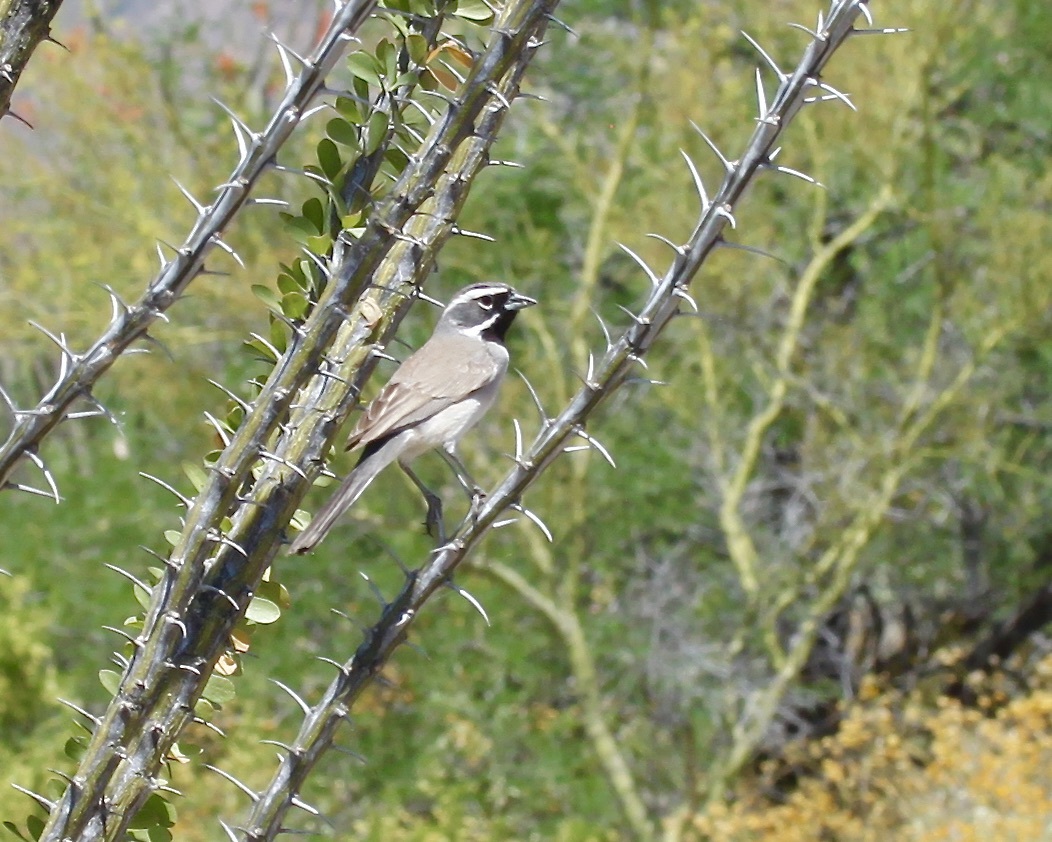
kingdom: Animalia
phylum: Chordata
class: Aves
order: Passeriformes
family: Passerellidae
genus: Amphispiza
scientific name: Amphispiza bilineata
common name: Black-throated sparrow
